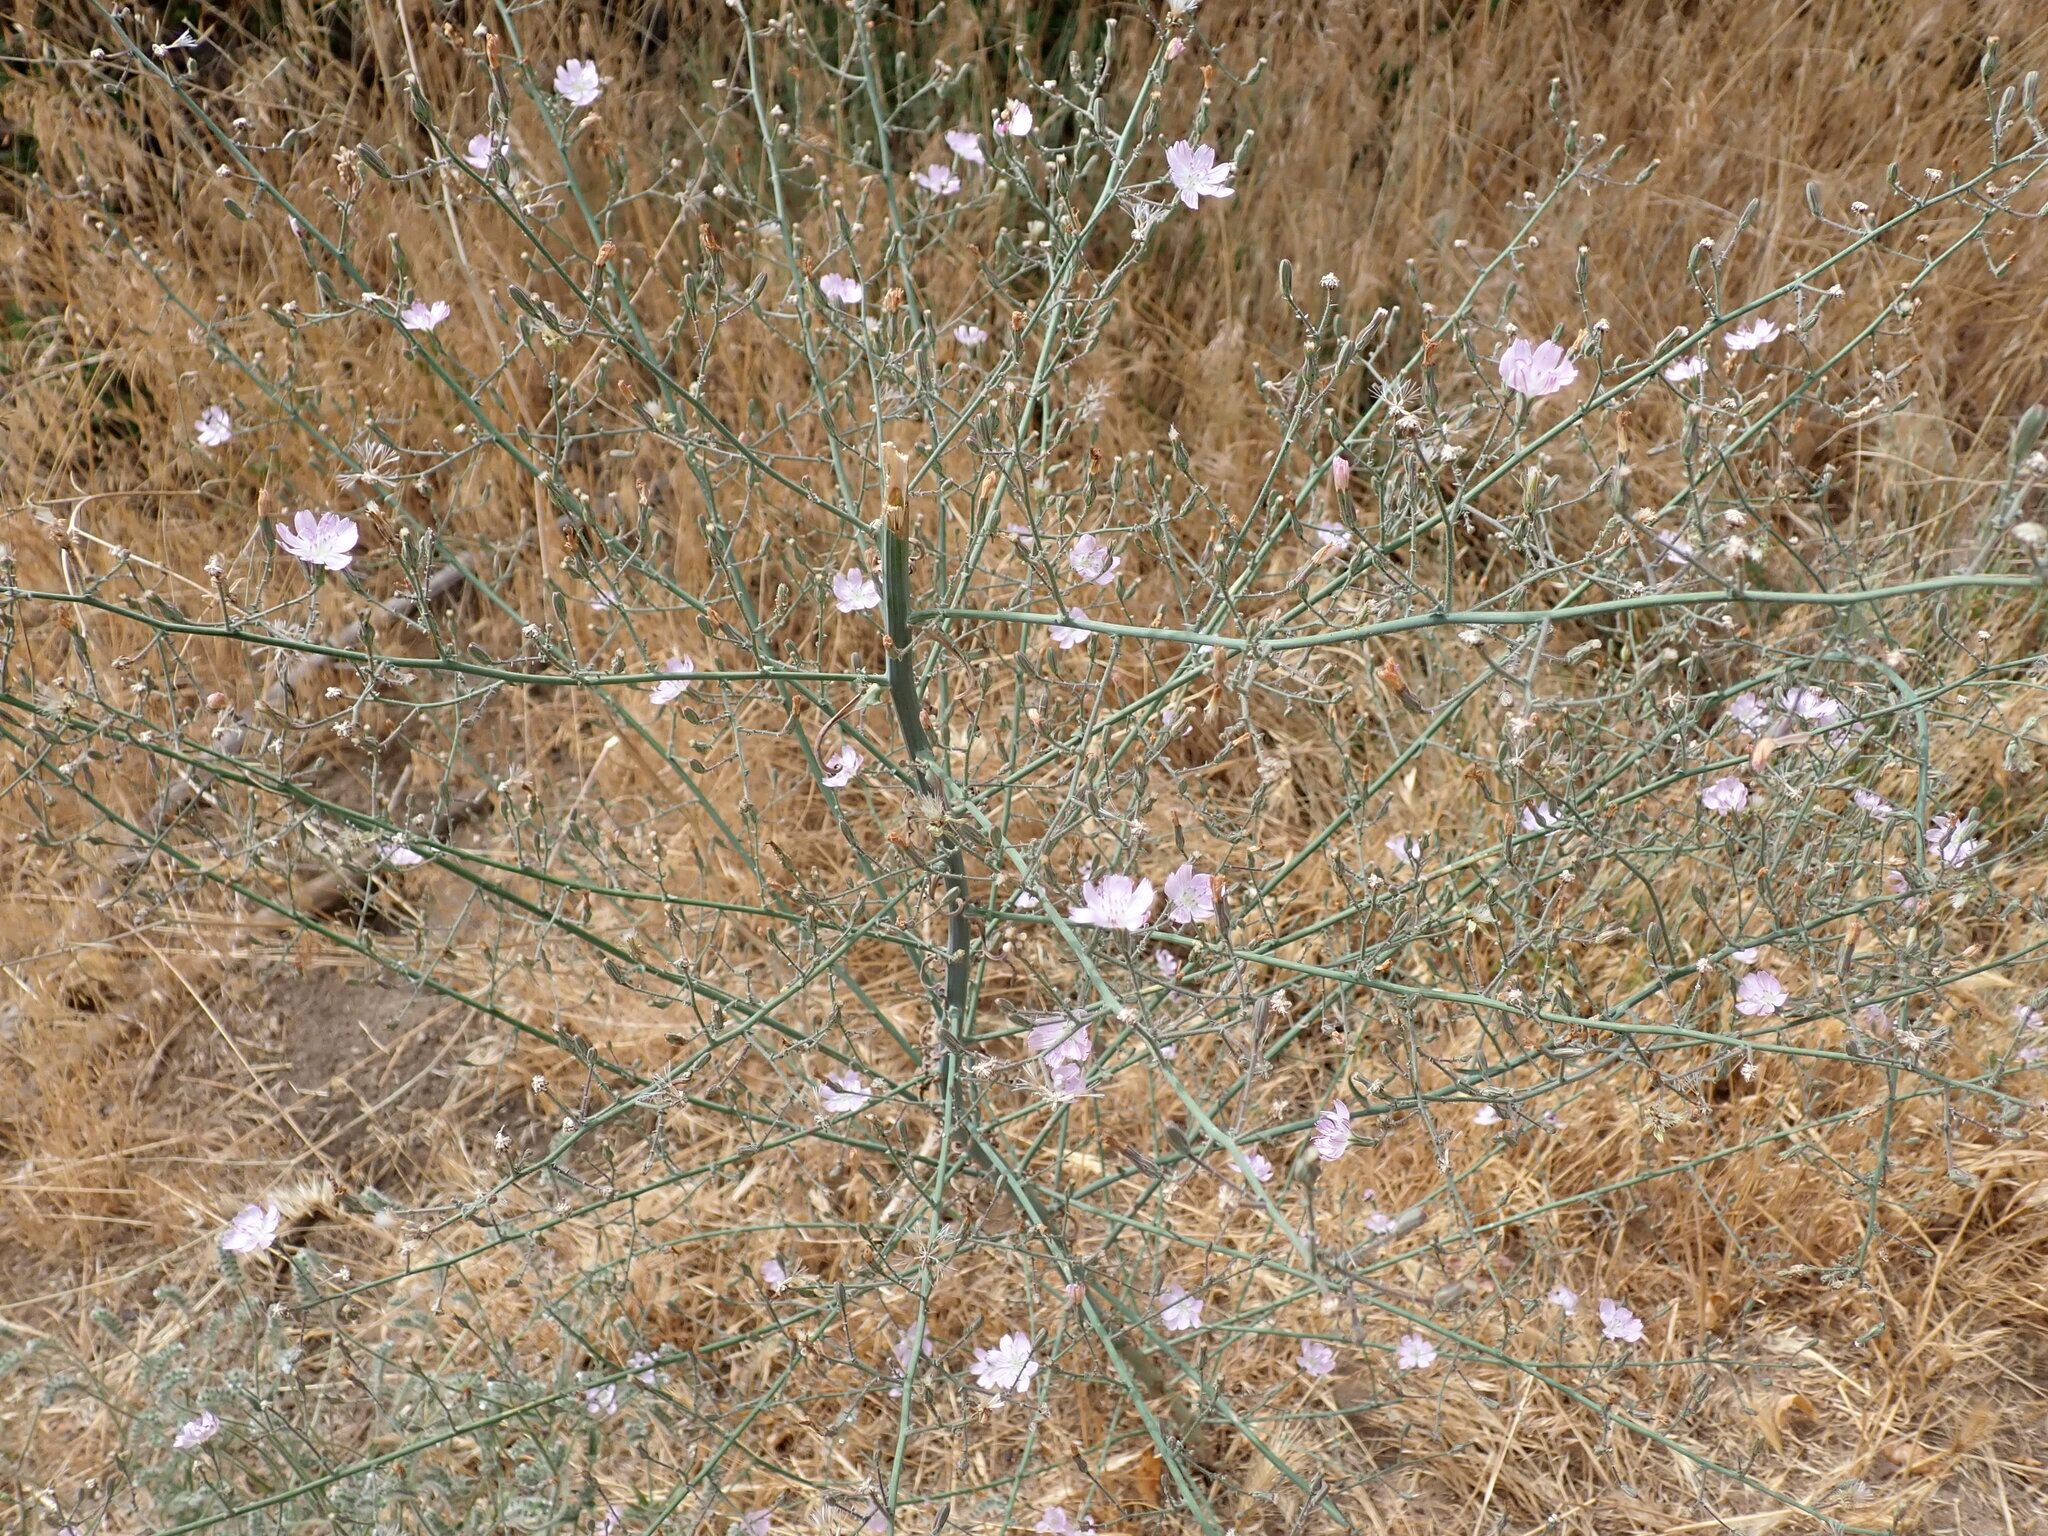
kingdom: Plantae
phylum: Tracheophyta
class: Magnoliopsida
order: Asterales
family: Asteraceae
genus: Stephanomeria
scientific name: Stephanomeria exigua
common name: Small wirelettuce
